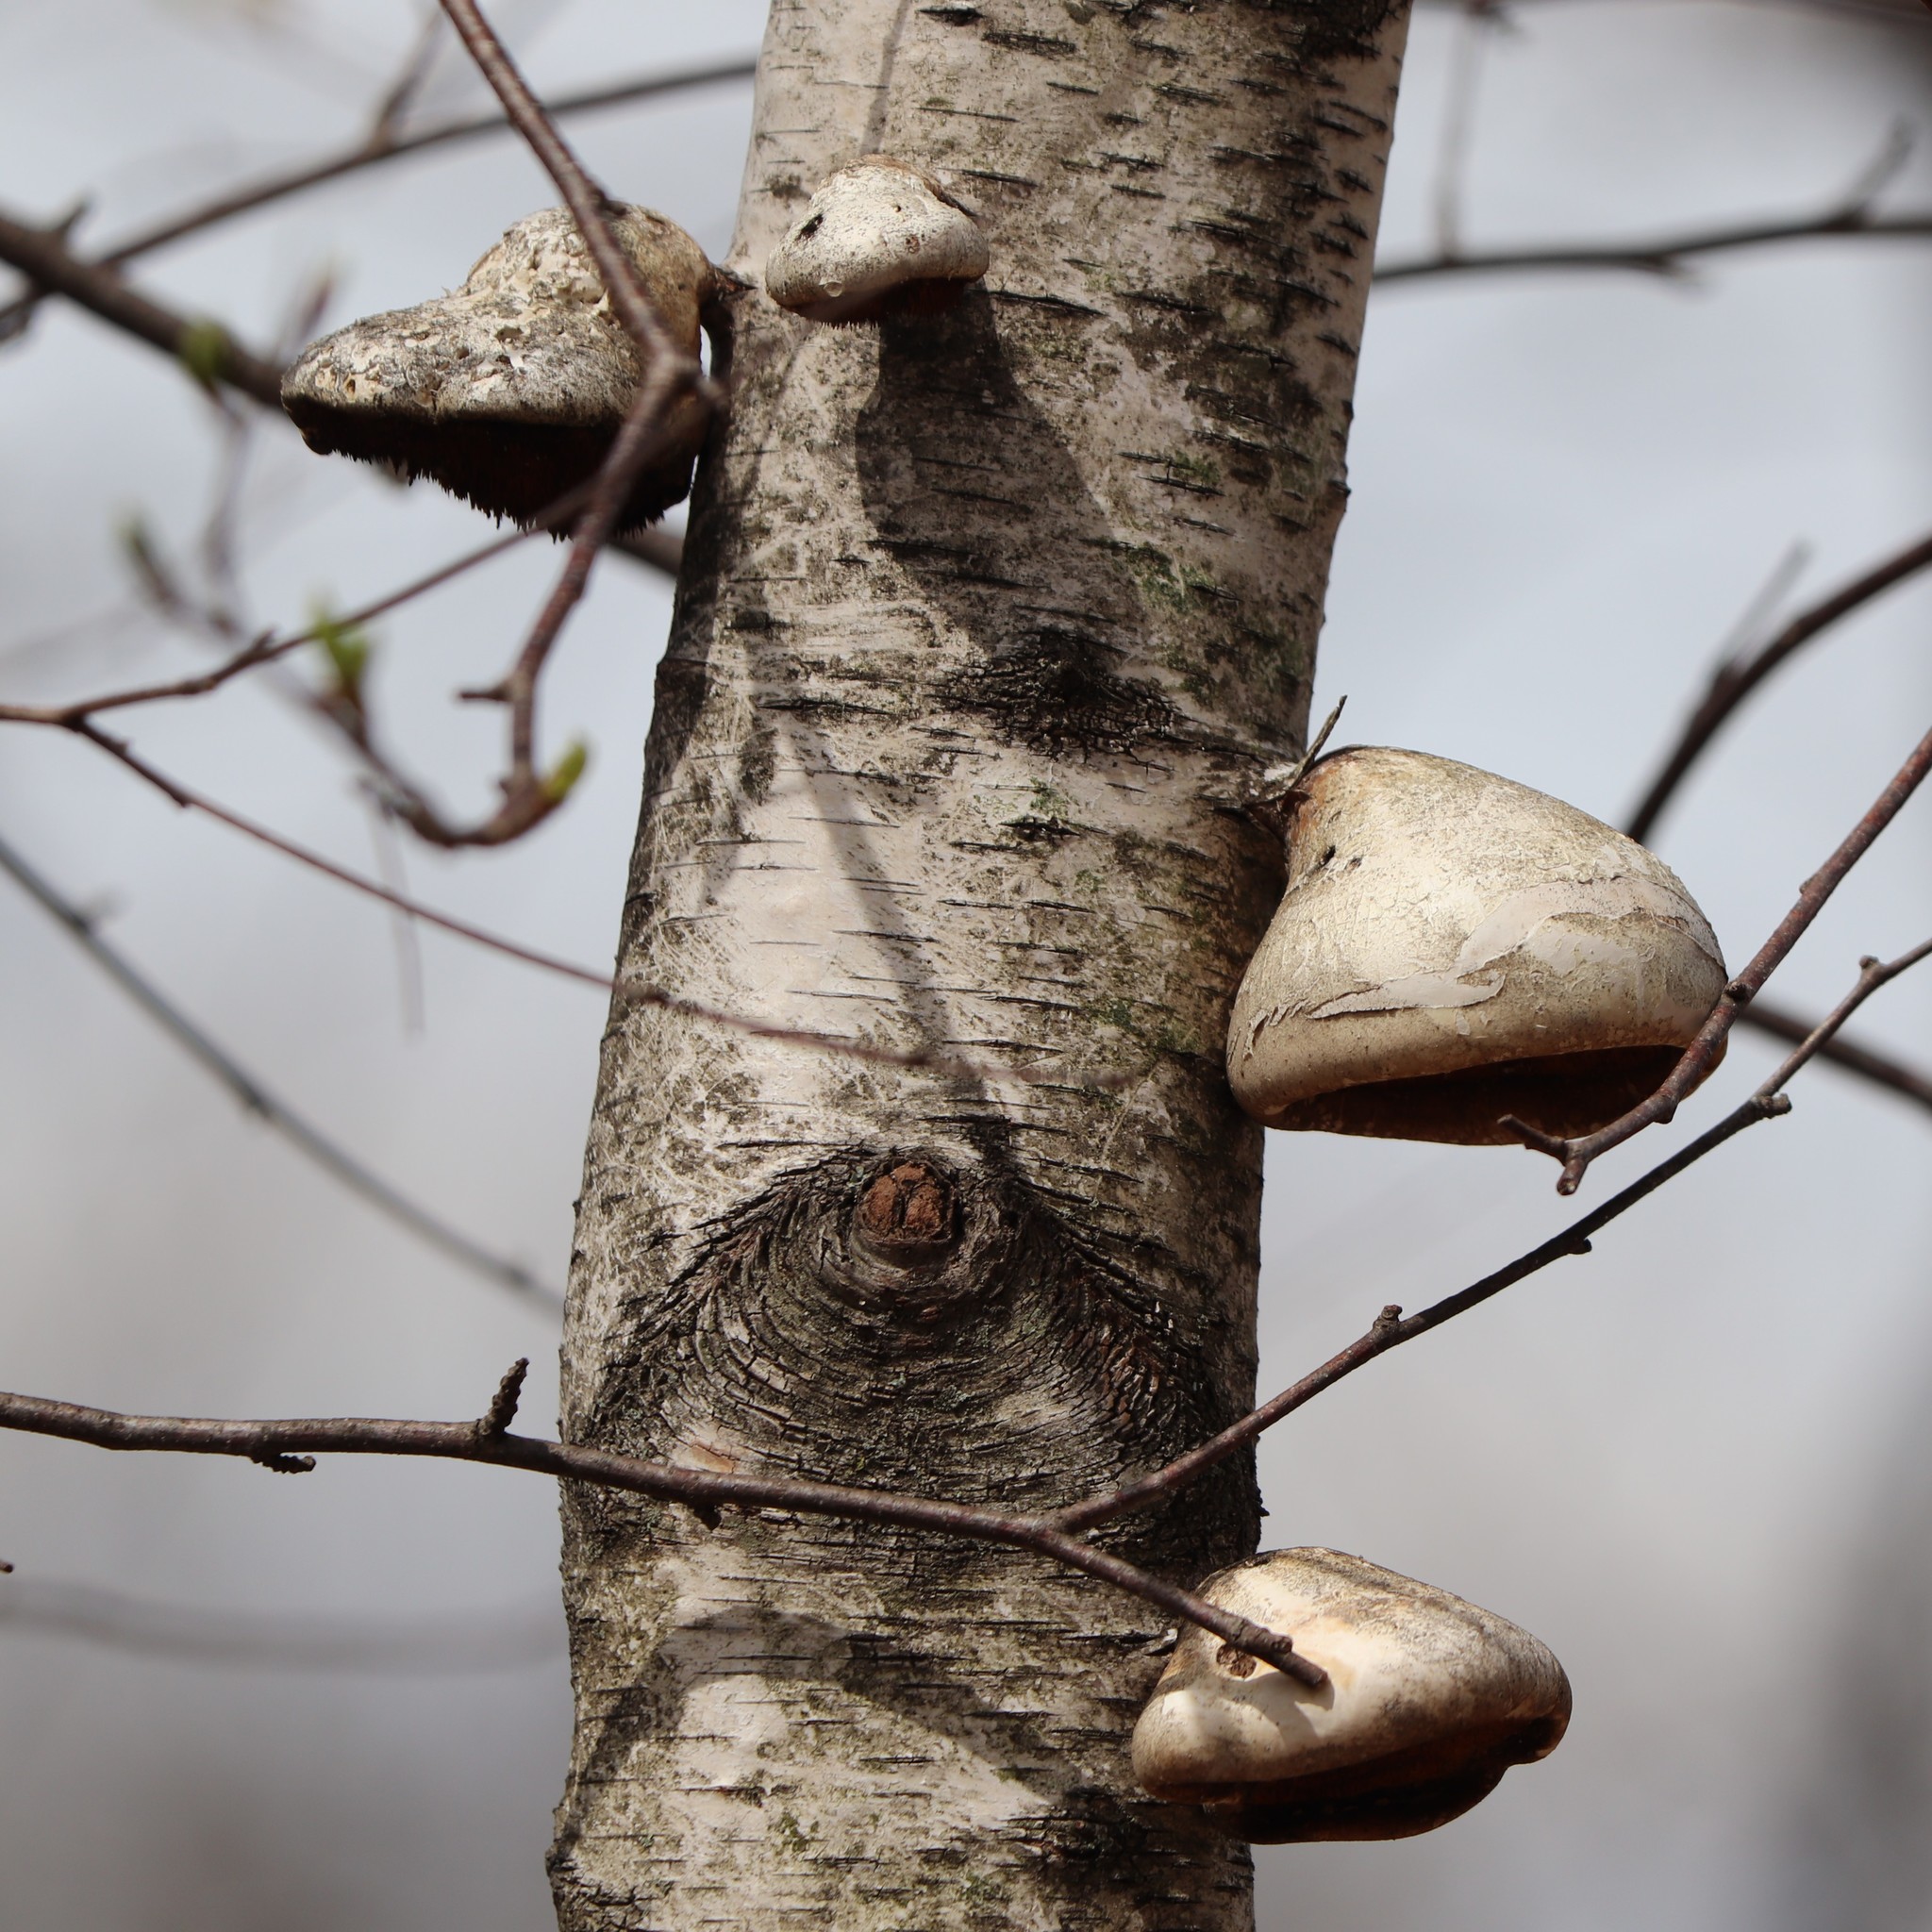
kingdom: Fungi
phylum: Basidiomycota
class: Agaricomycetes
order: Polyporales
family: Fomitopsidaceae
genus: Fomitopsis
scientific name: Fomitopsis betulina
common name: Birch polypore
